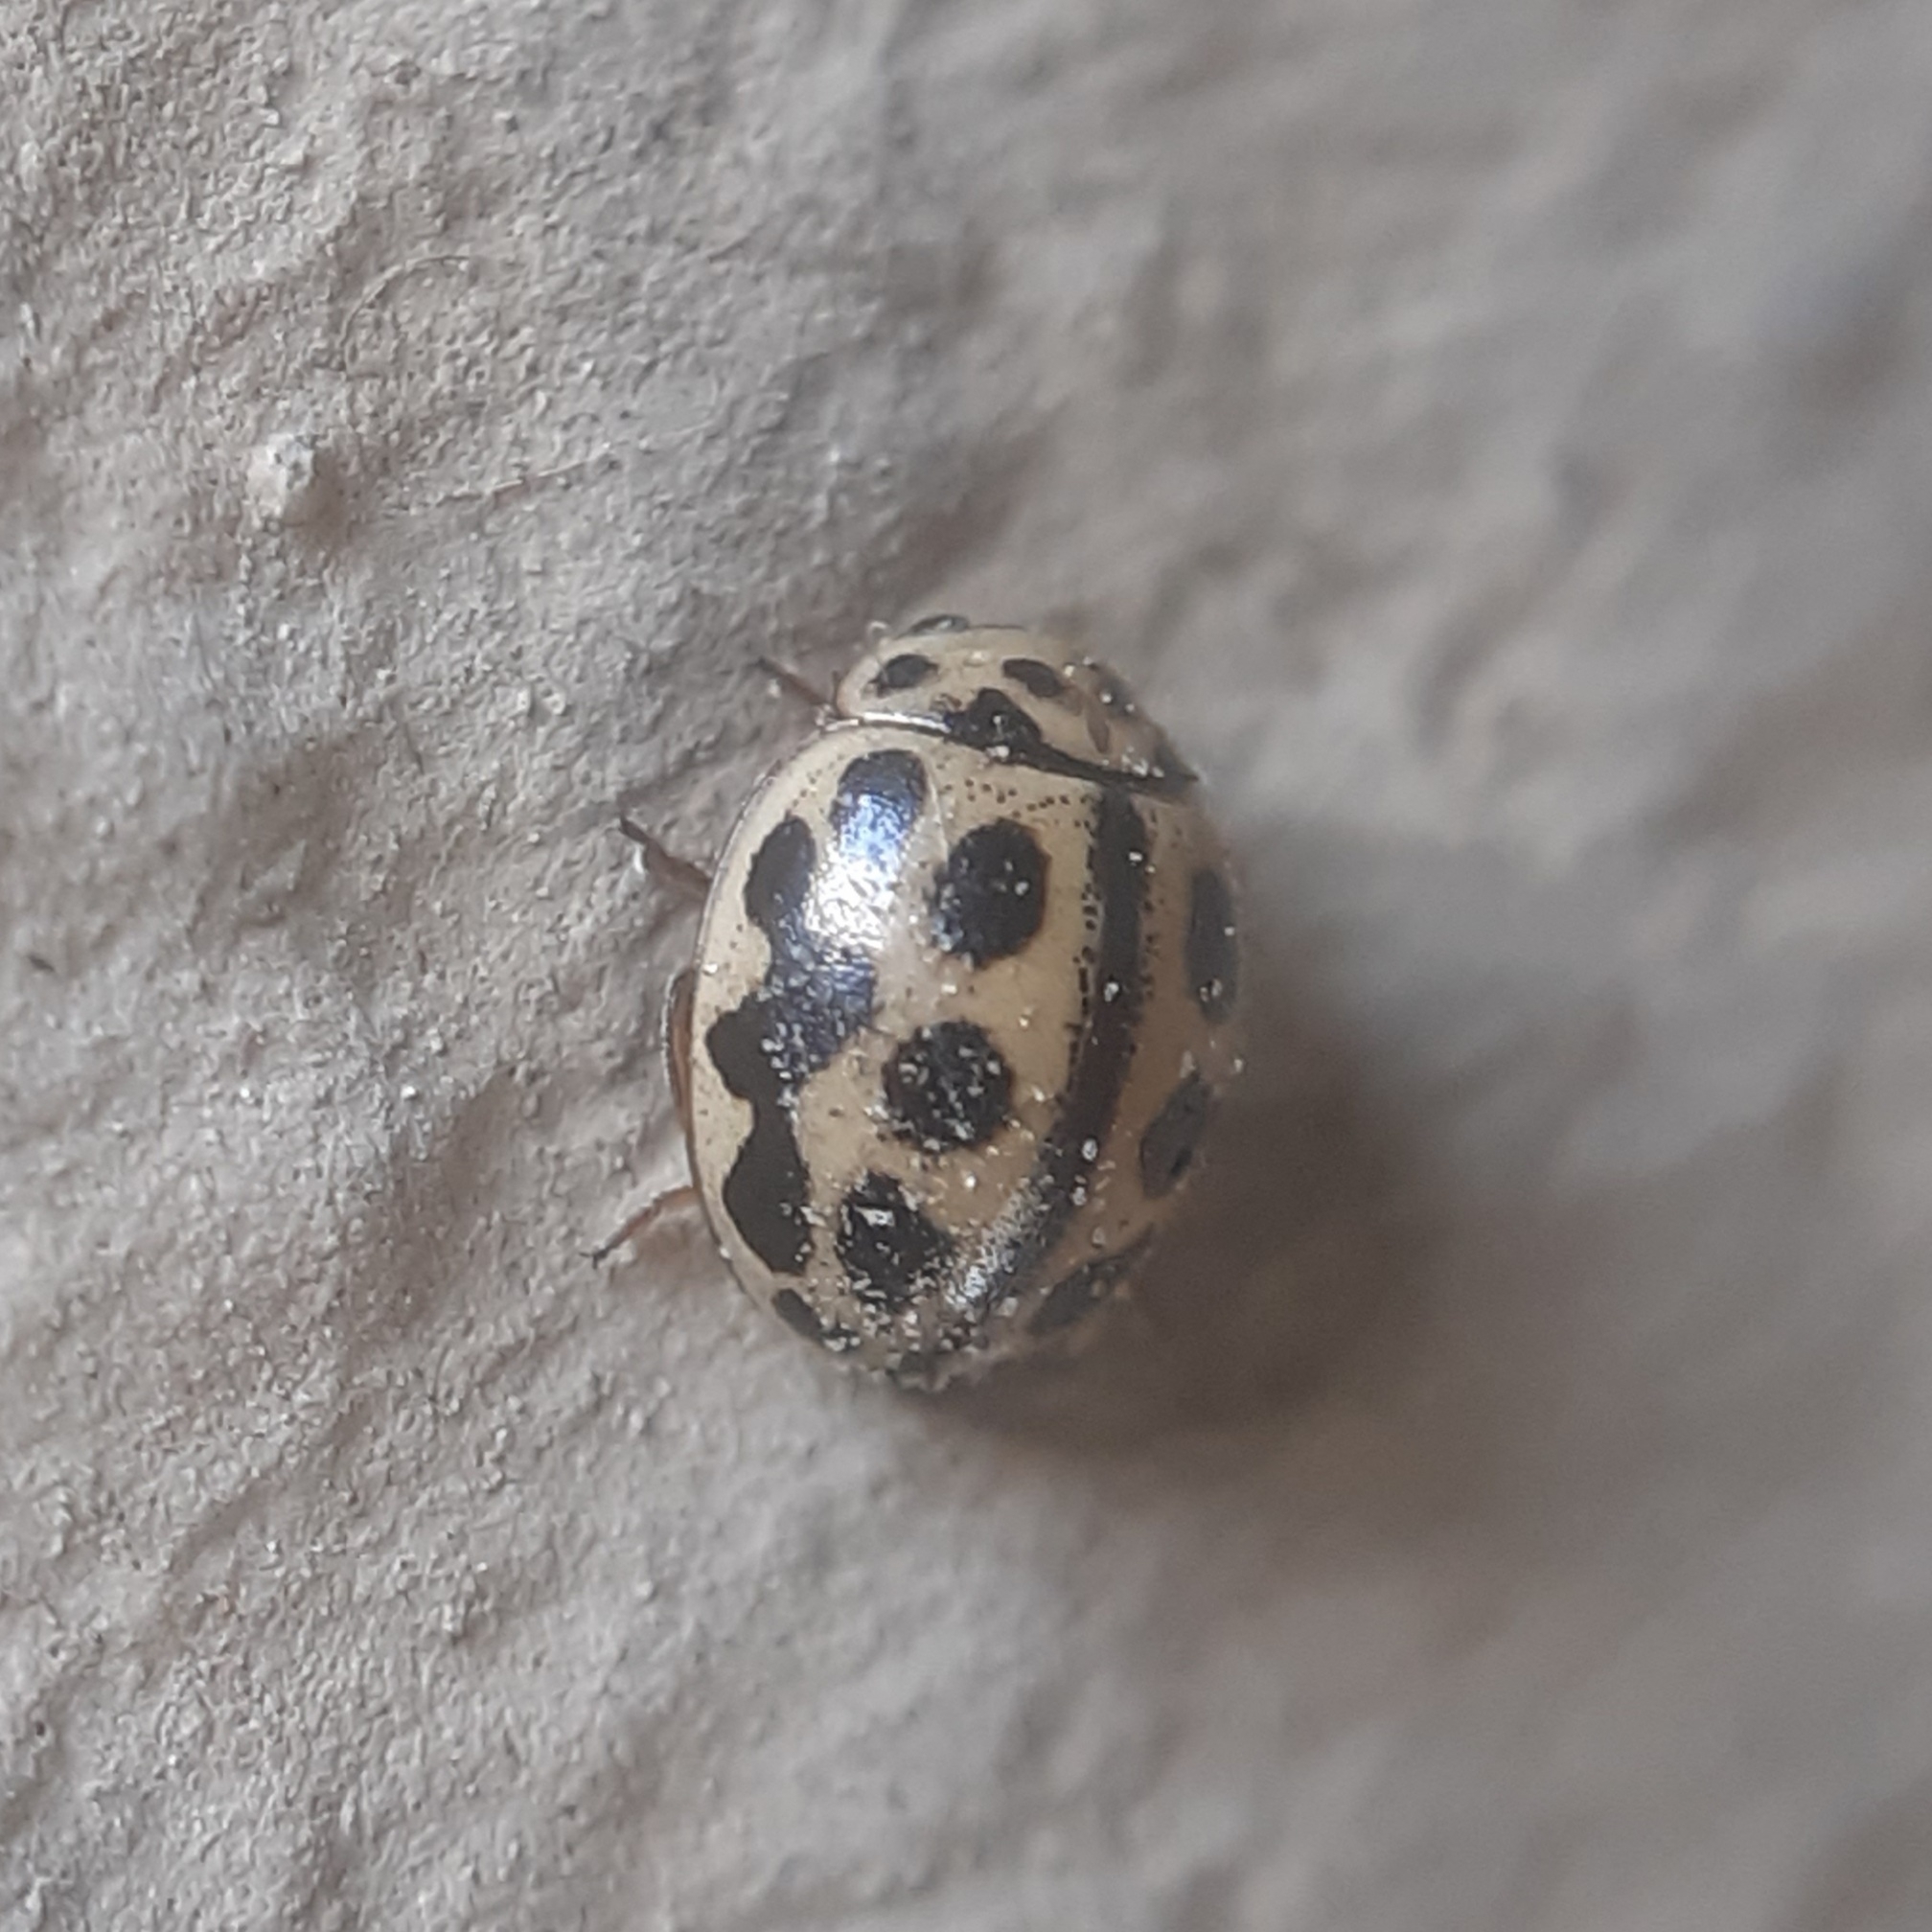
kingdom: Animalia
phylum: Arthropoda
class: Insecta
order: Coleoptera
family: Coccinellidae
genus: Tytthaspis
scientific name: Tytthaspis sedecimpunctata
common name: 16-spot ladybird
